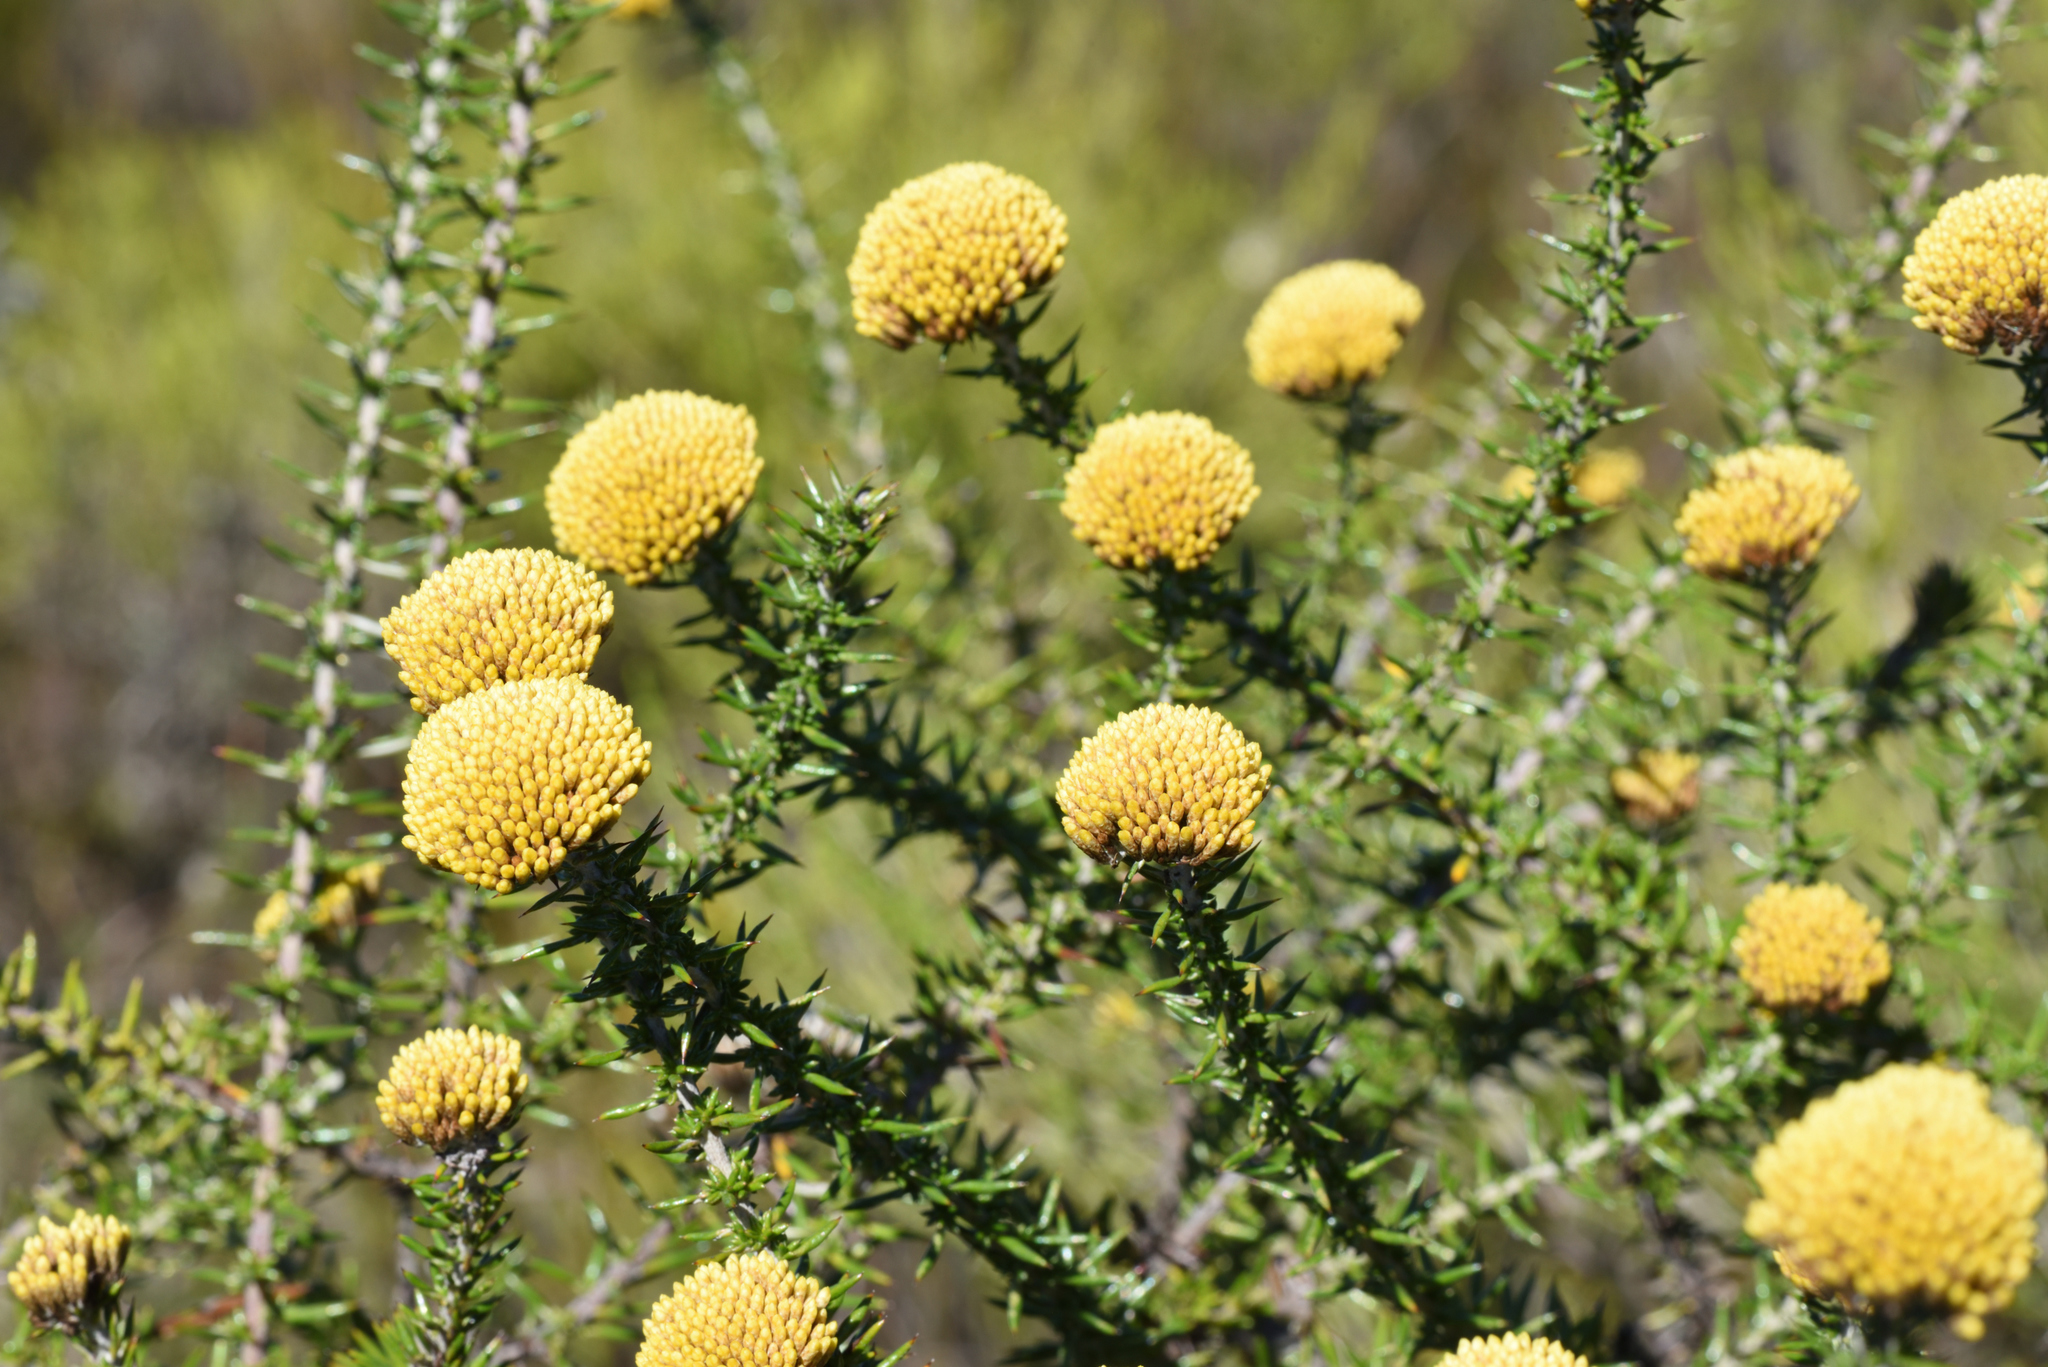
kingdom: Plantae
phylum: Tracheophyta
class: Magnoliopsida
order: Asterales
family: Asteraceae
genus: Metalasia
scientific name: Metalasia aurea
